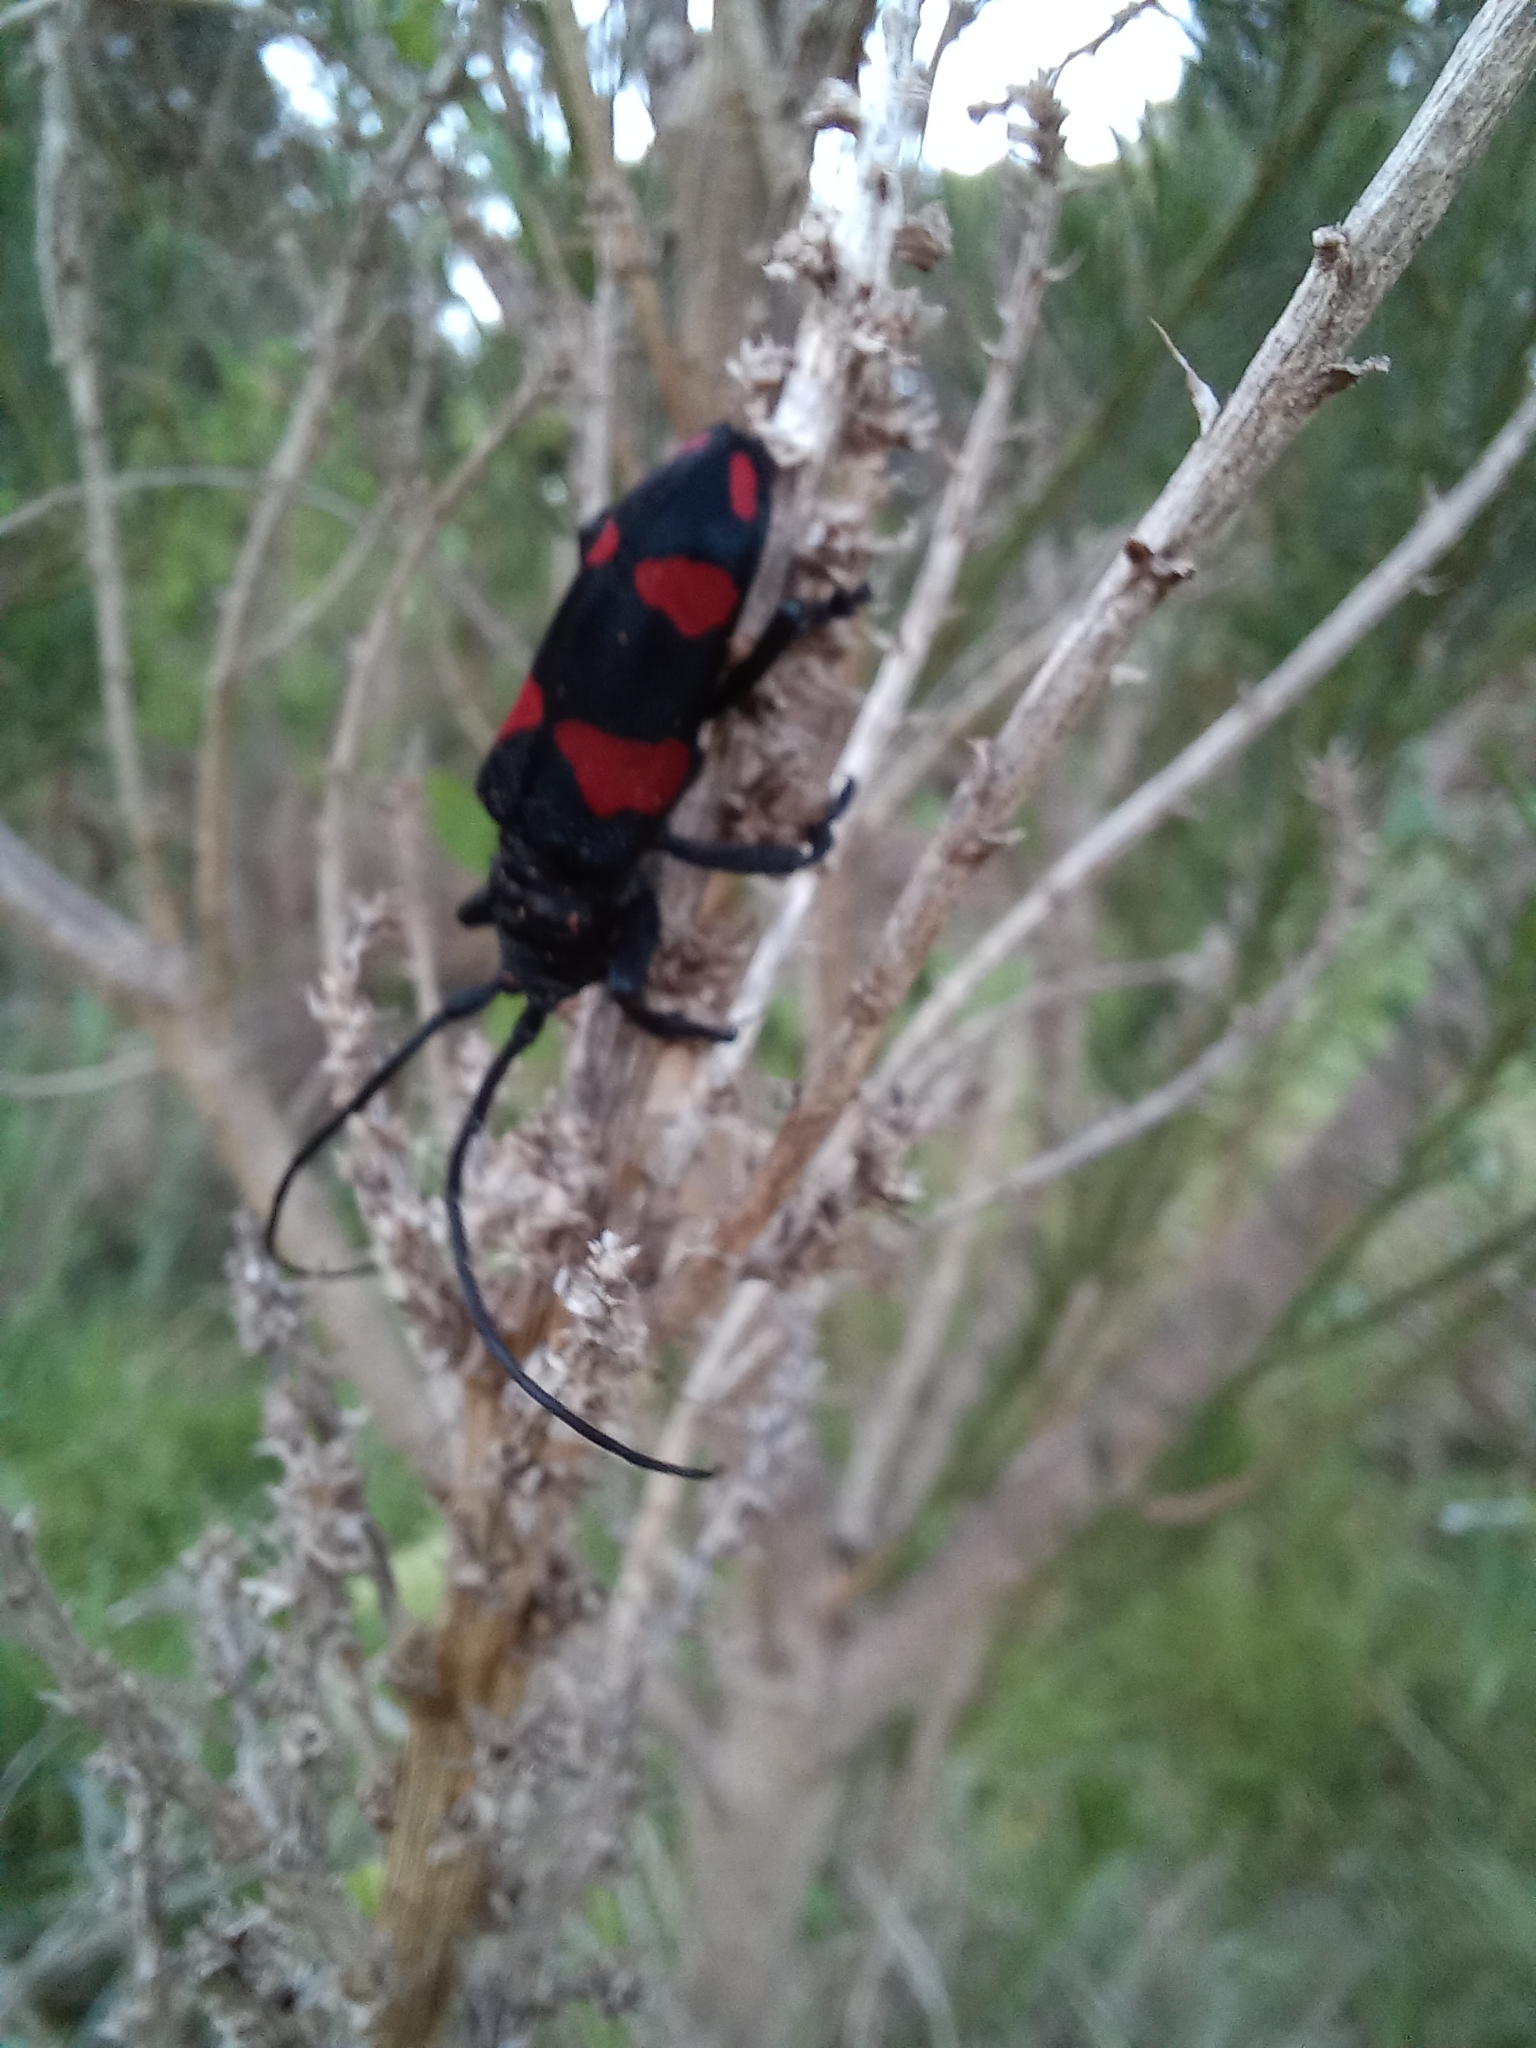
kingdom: Animalia
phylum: Arthropoda
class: Insecta
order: Coleoptera
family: Cerambycidae
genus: Ceroplesis
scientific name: Ceroplesis aethiops
